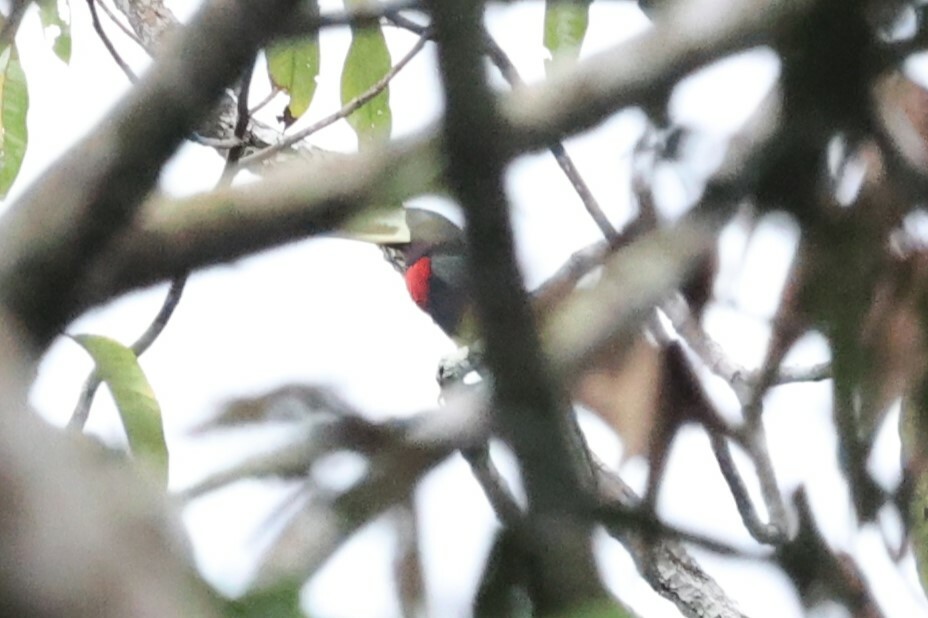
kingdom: Animalia
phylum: Chordata
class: Aves
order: Piciformes
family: Ramphastidae
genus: Pteroglossus
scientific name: Pteroglossus azara
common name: Ivory-billed aracari
